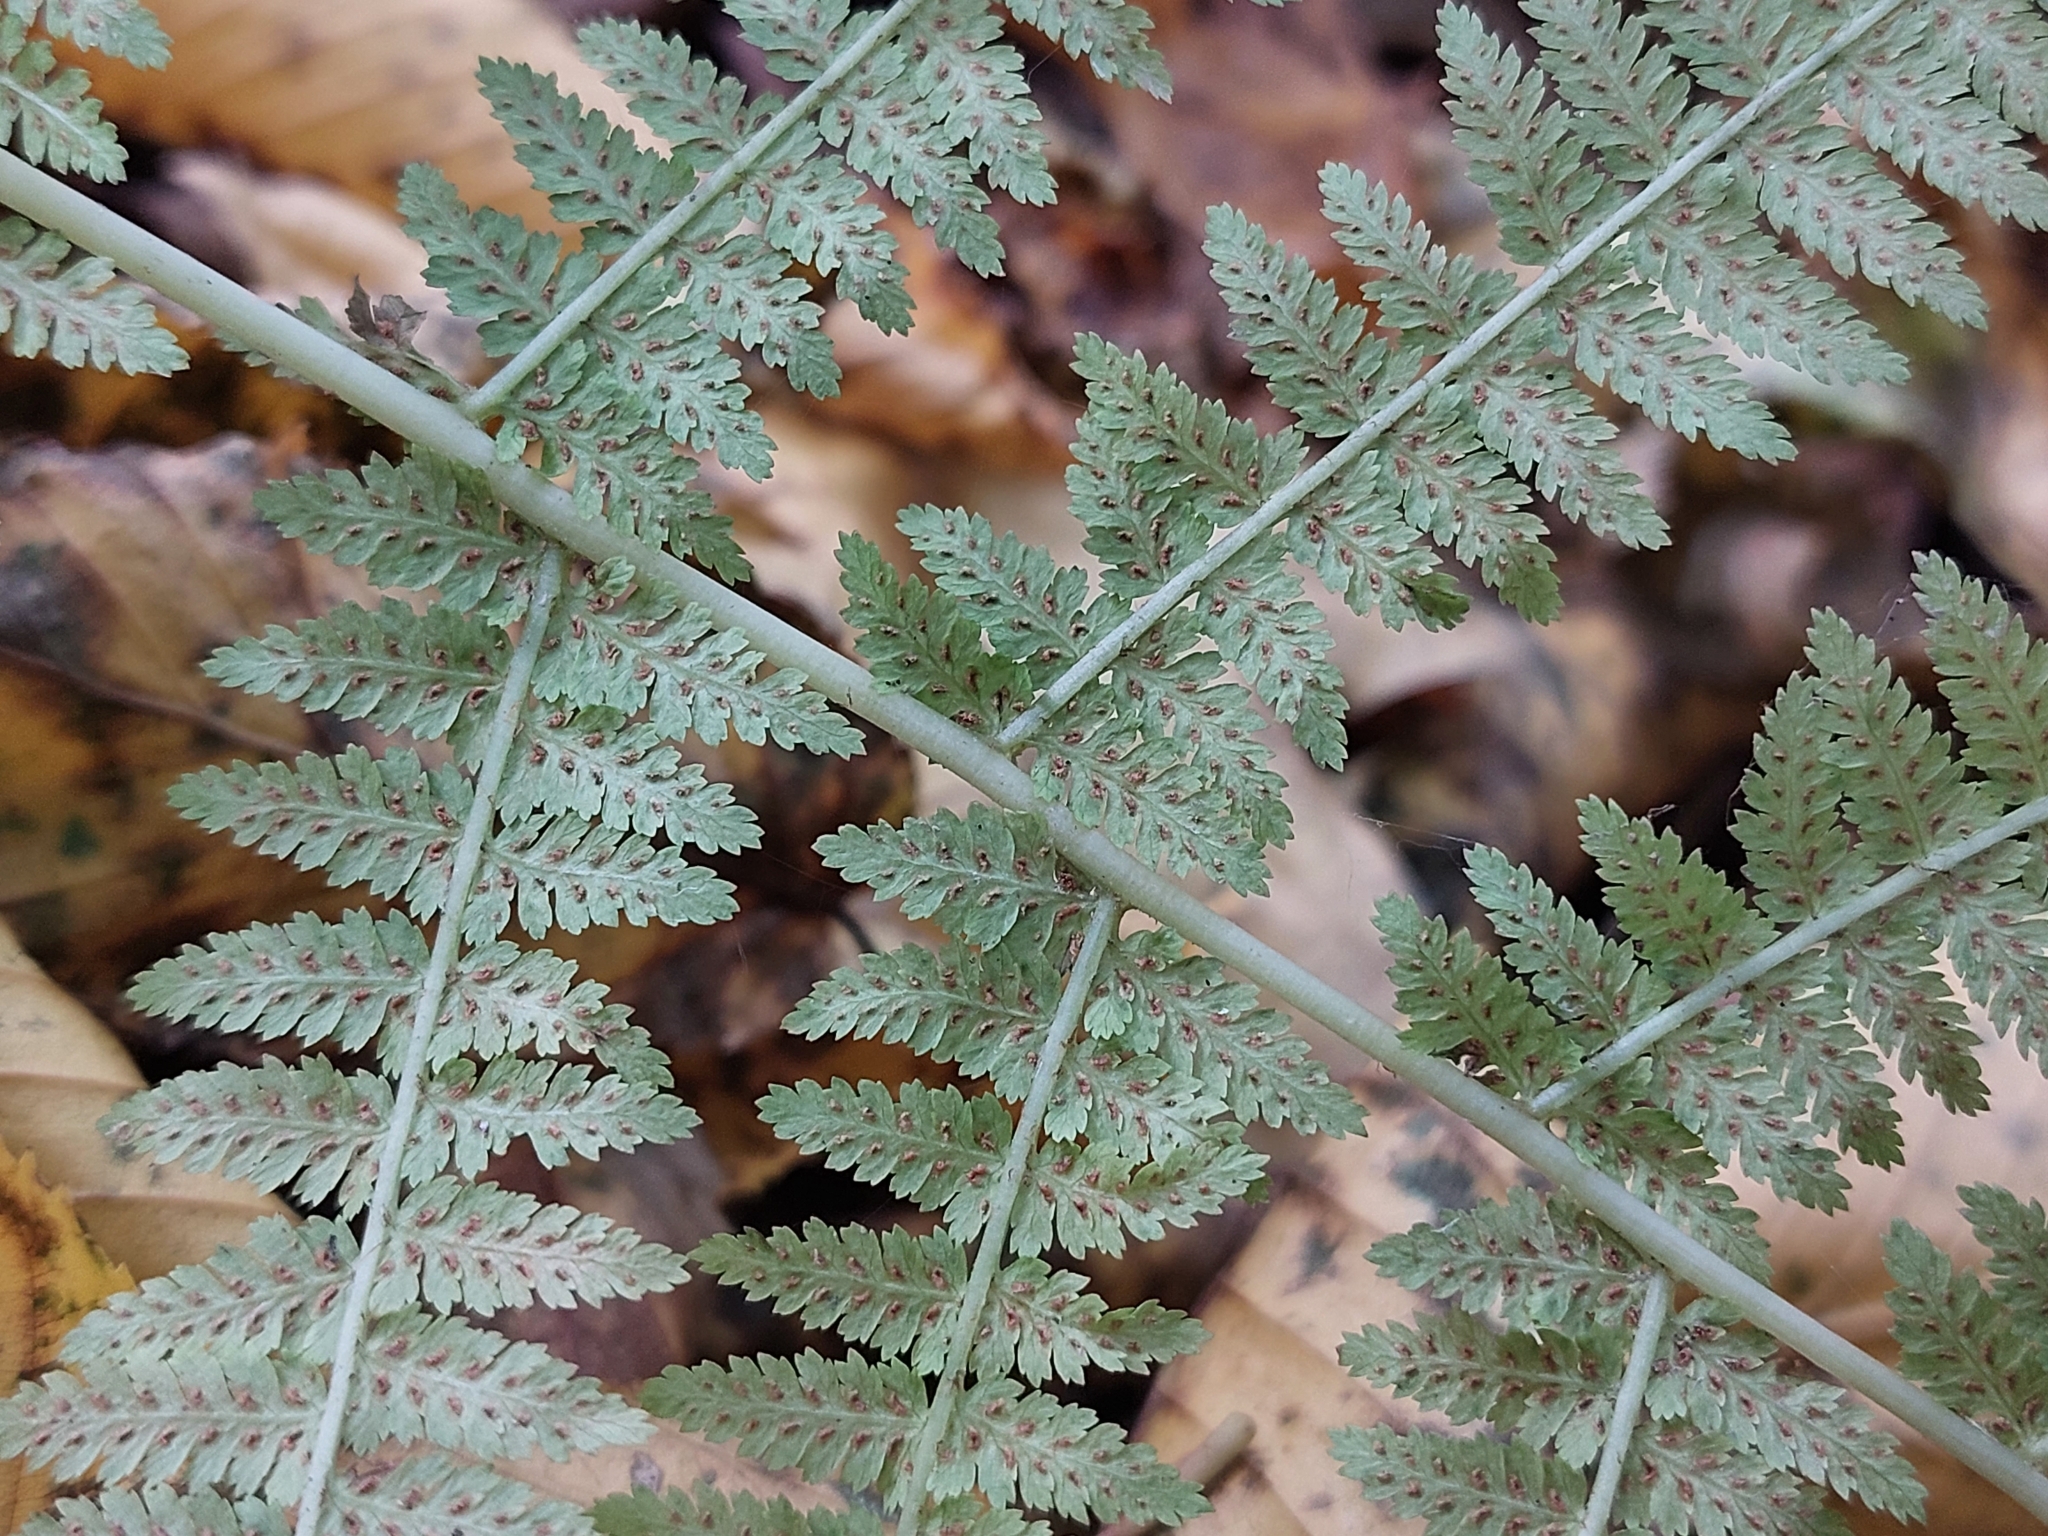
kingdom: Plantae
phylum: Tracheophyta
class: Polypodiopsida
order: Polypodiales
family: Athyriaceae
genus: Athyrium
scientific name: Athyrium filix-femina
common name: Lady fern
